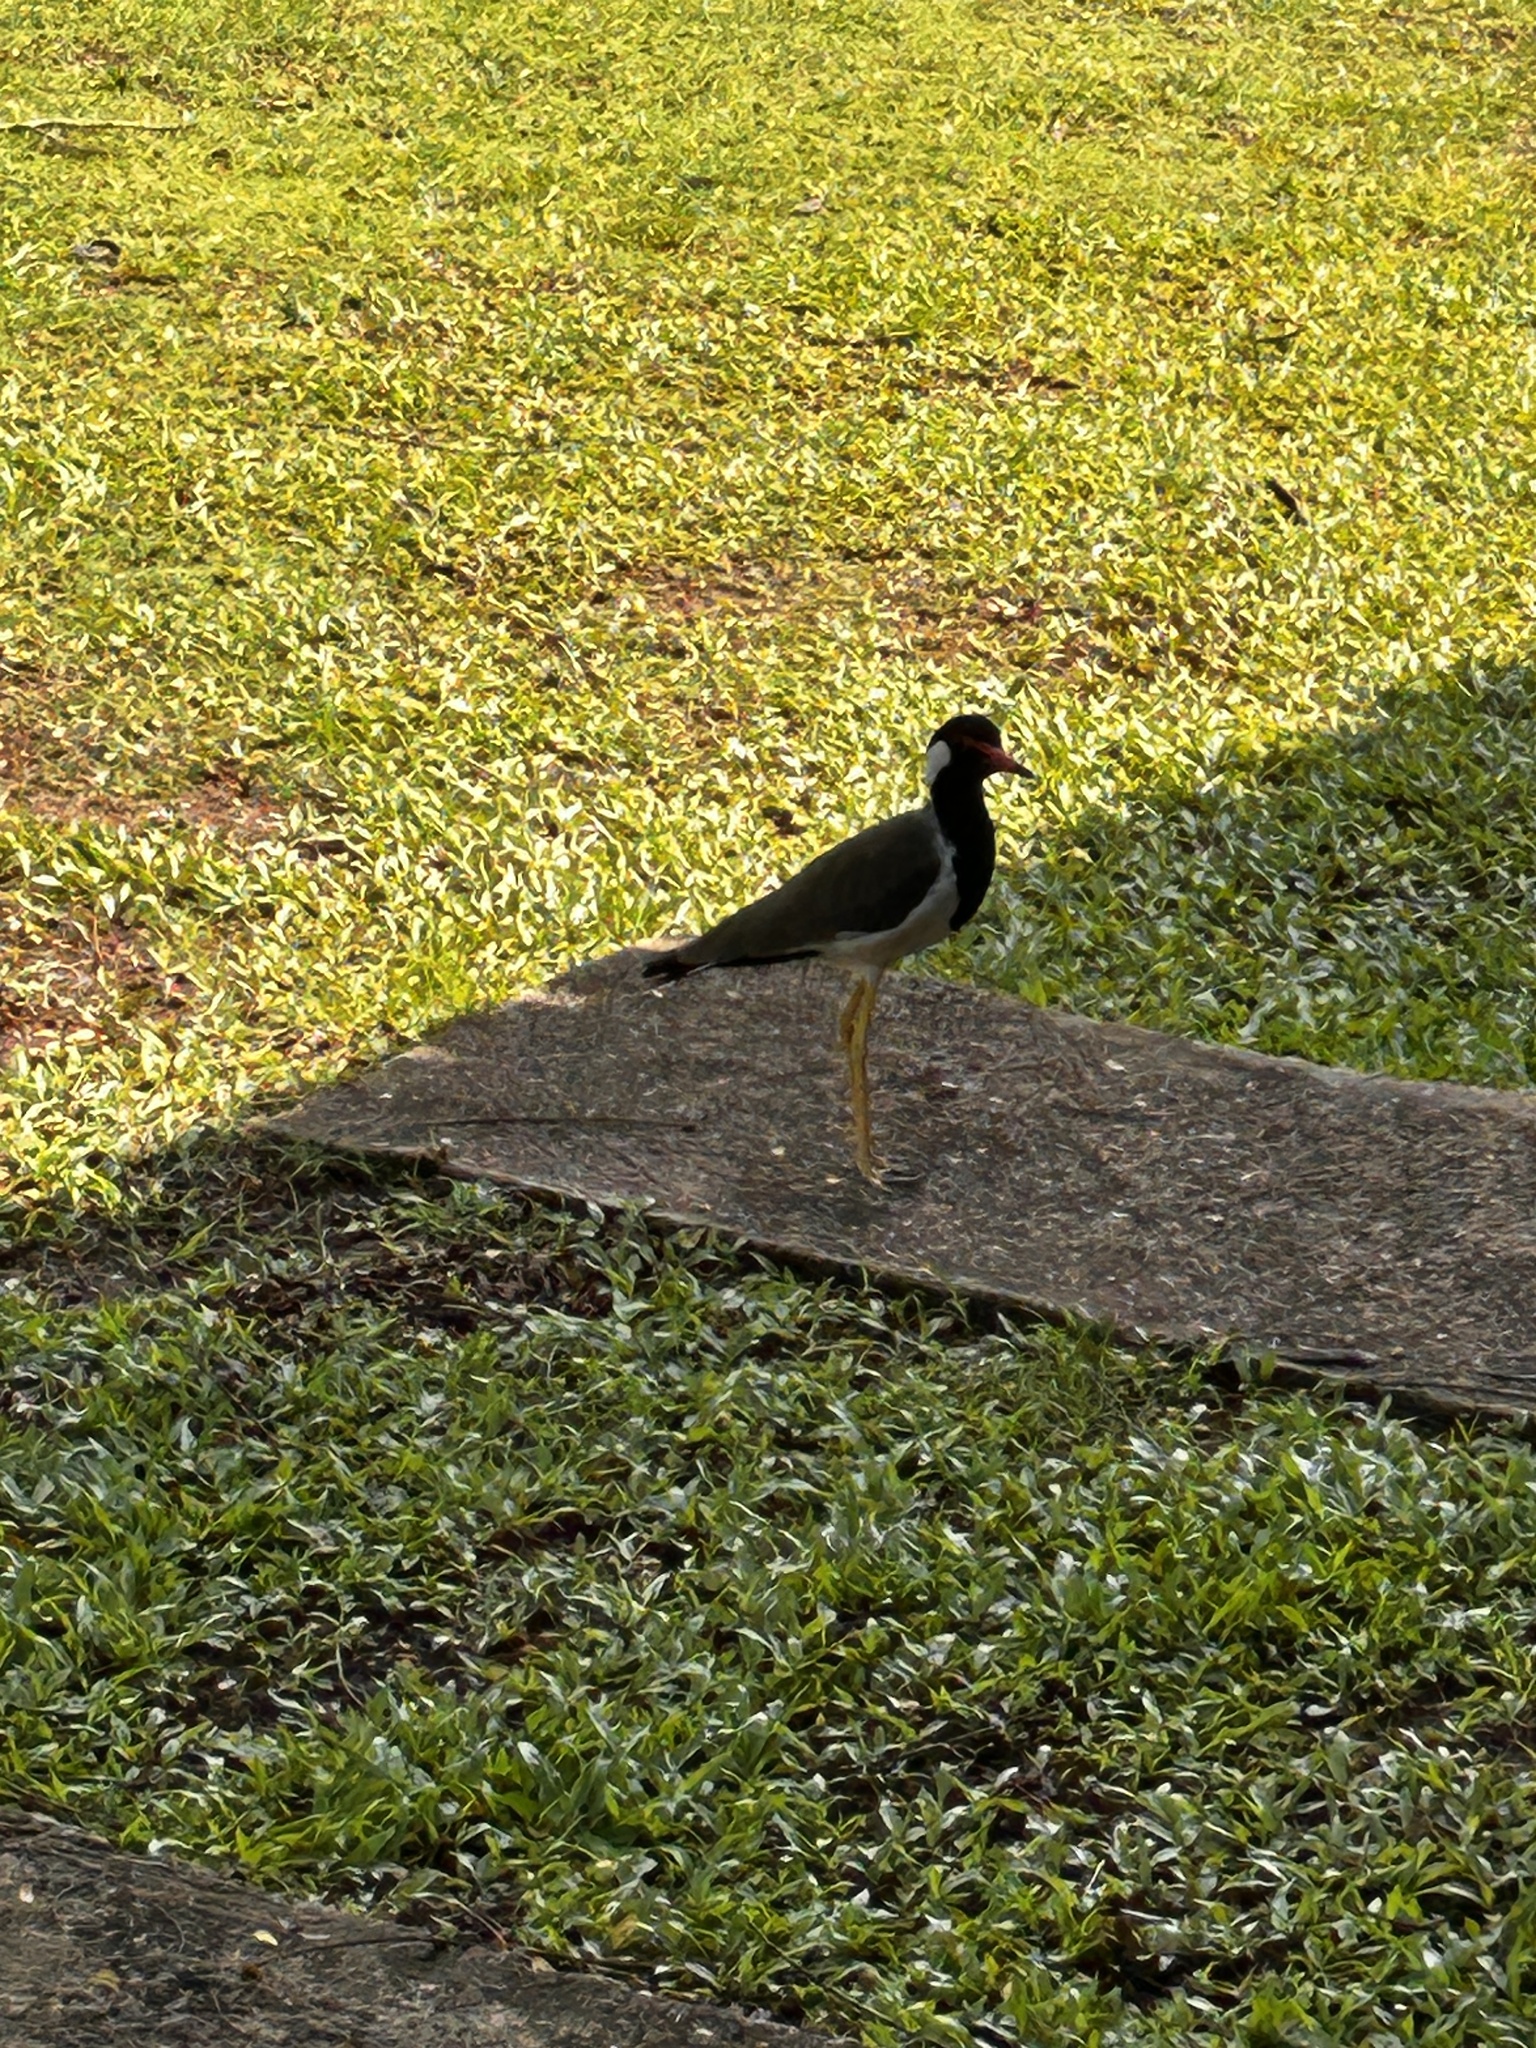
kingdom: Animalia
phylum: Chordata
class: Aves
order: Charadriiformes
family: Charadriidae
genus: Vanellus
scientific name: Vanellus indicus
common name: Red-wattled lapwing
